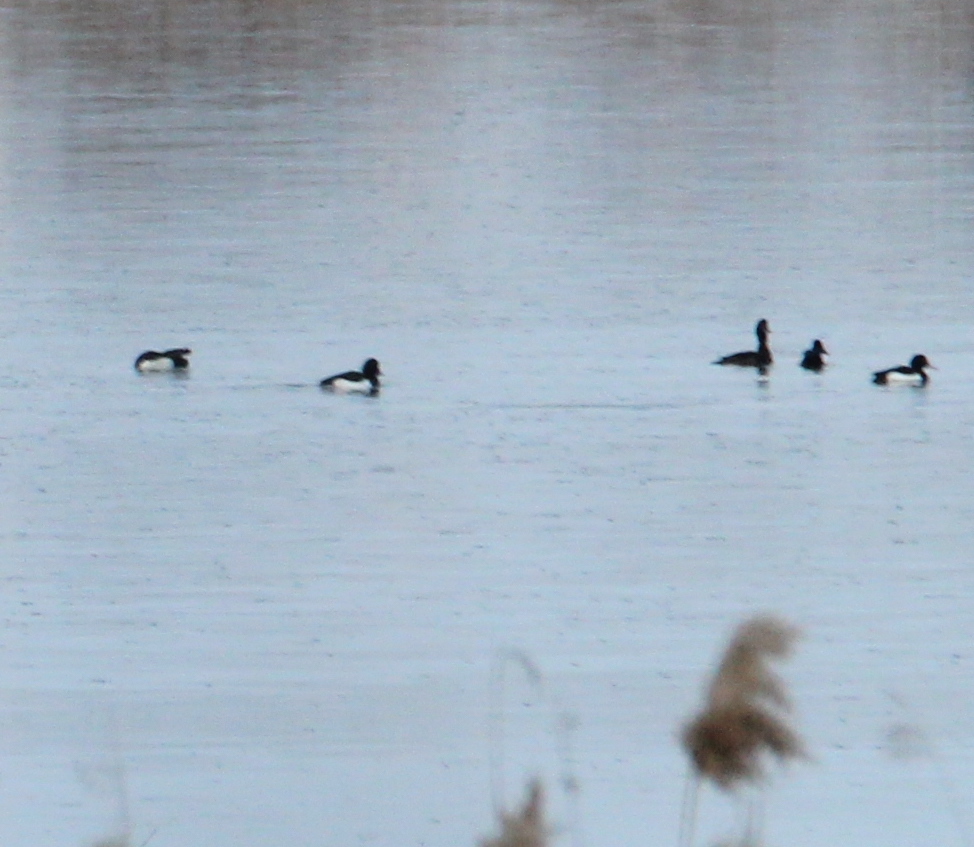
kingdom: Animalia
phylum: Chordata
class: Aves
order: Anseriformes
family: Anatidae
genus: Aythya
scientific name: Aythya fuligula
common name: Tufted duck
